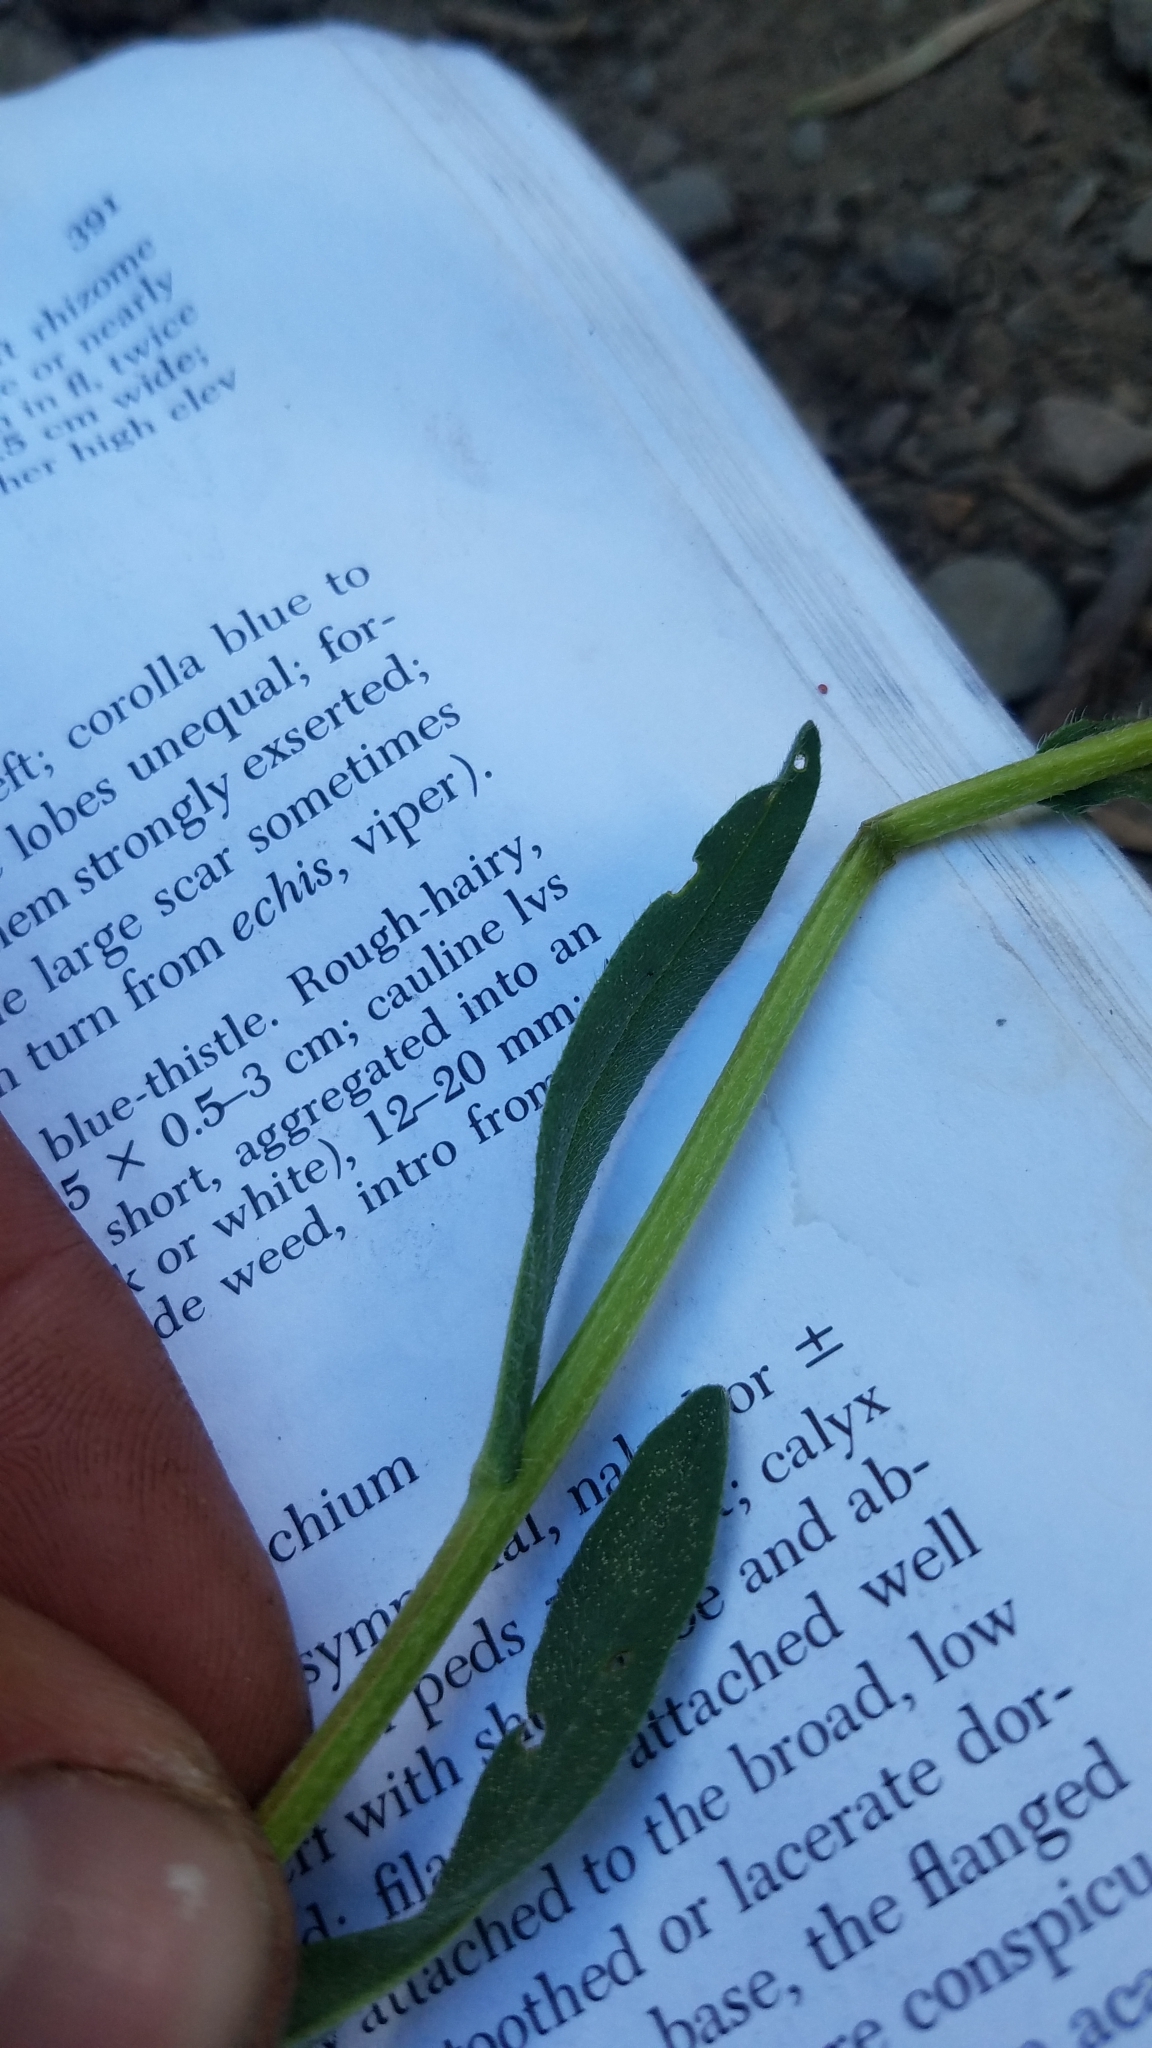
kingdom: Plantae
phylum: Tracheophyta
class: Magnoliopsida
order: Boraginales
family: Boraginaceae
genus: Hackelia
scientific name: Hackelia patens
